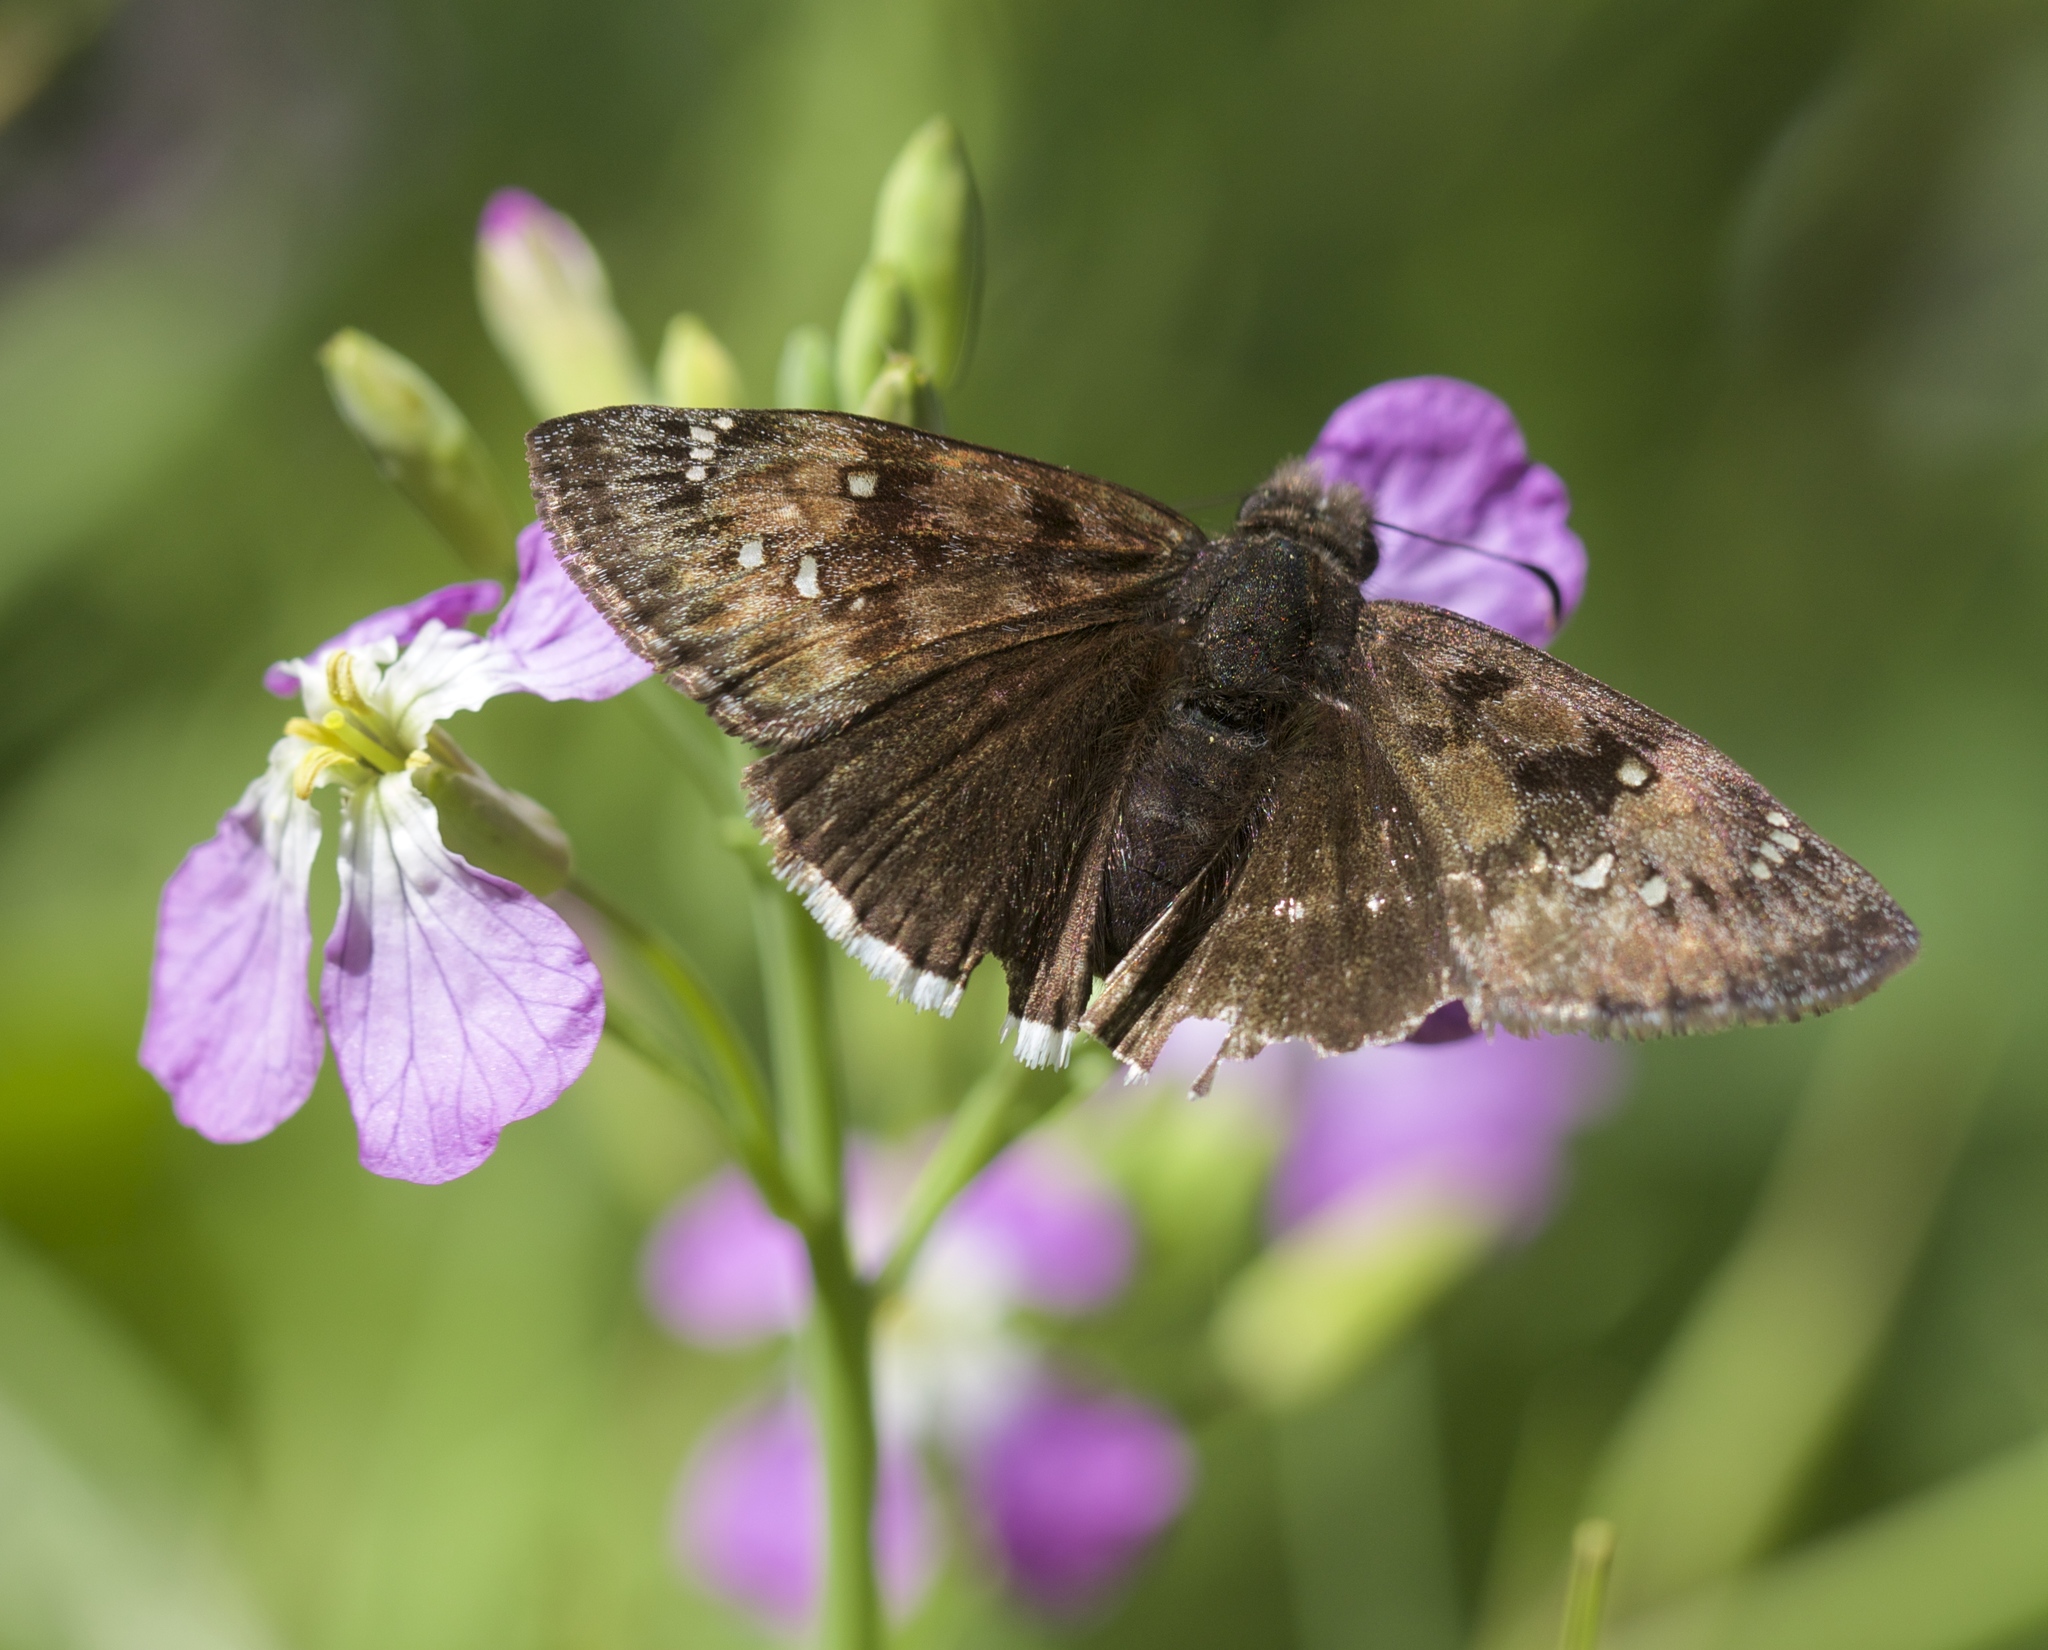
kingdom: Animalia
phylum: Arthropoda
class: Insecta
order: Lepidoptera
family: Hesperiidae
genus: Erynnis
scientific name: Erynnis tristis
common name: Mournful duskywing
